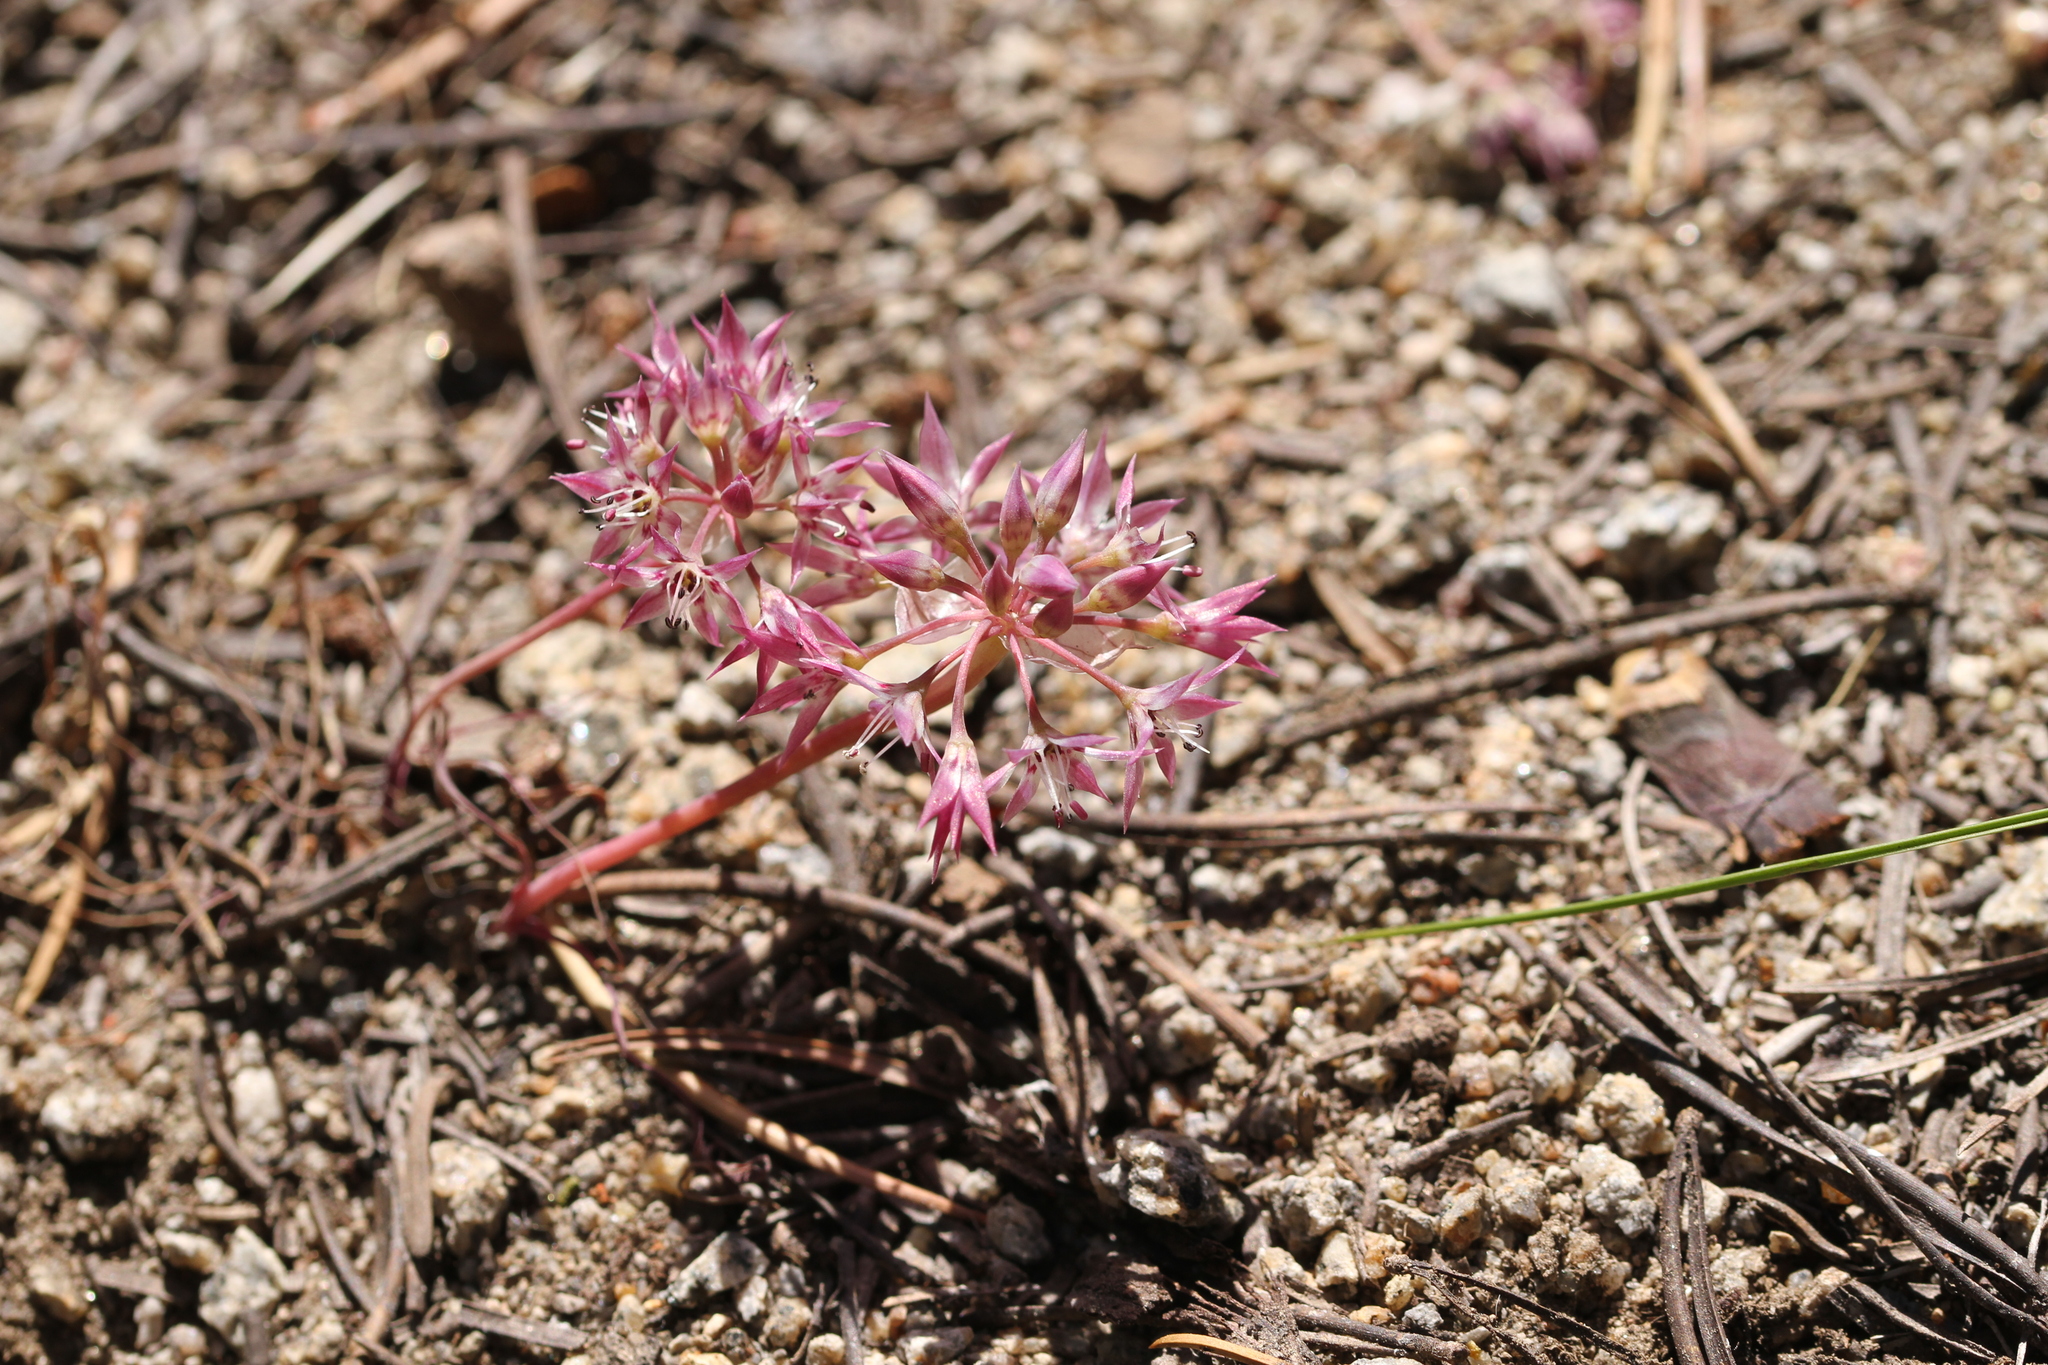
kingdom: Plantae
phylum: Tracheophyta
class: Liliopsida
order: Asparagales
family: Amaryllidaceae
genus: Allium
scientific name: Allium campanulatum
